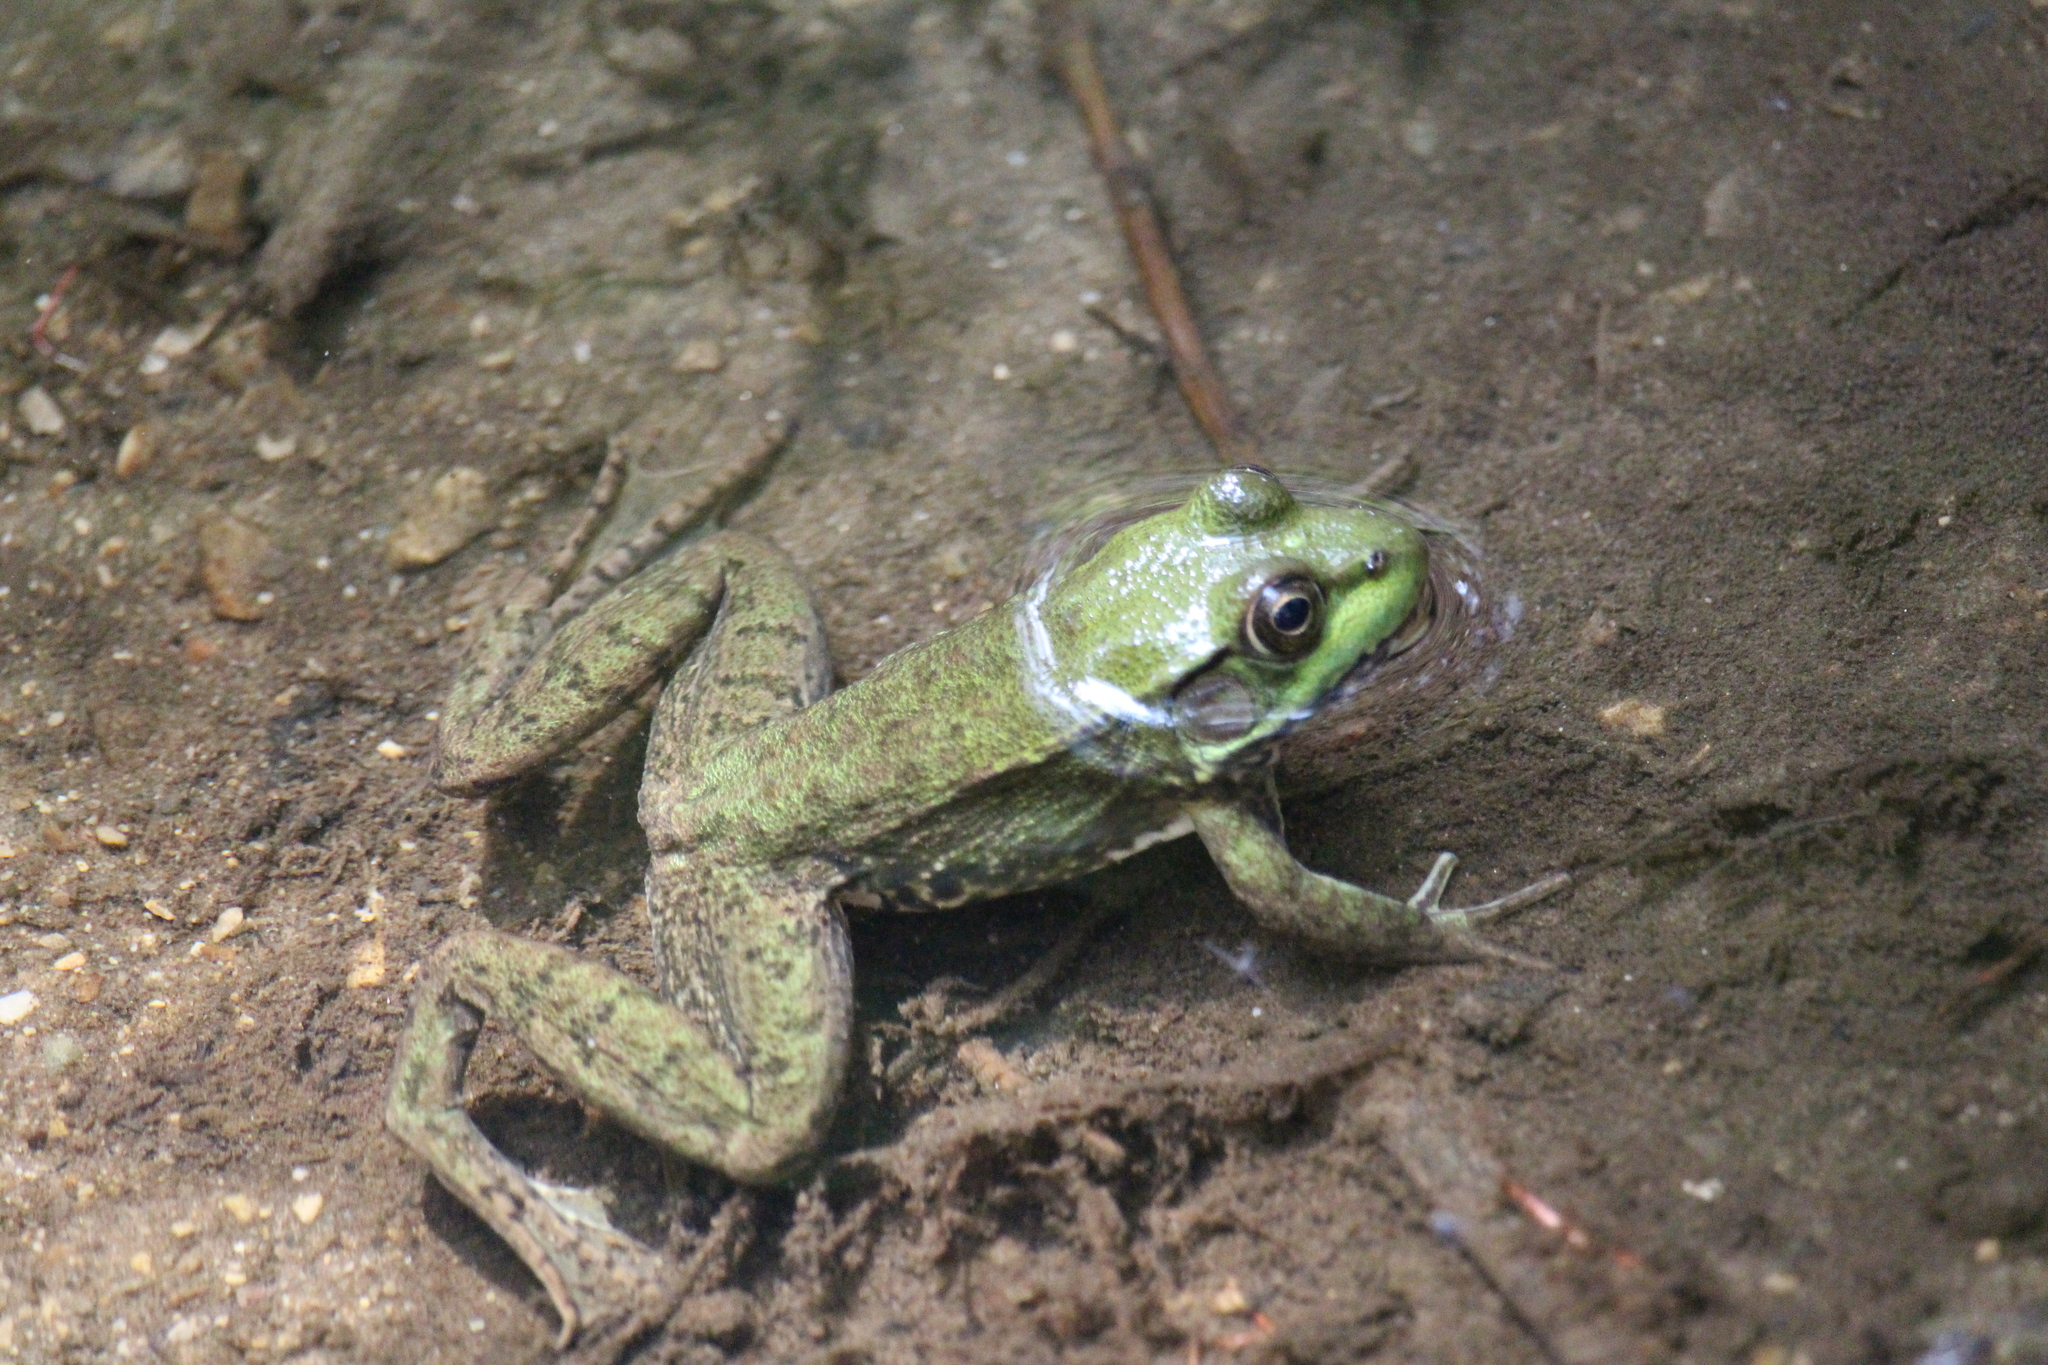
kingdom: Animalia
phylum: Chordata
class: Amphibia
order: Anura
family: Ranidae
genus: Lithobates
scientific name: Lithobates clamitans
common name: Green frog
